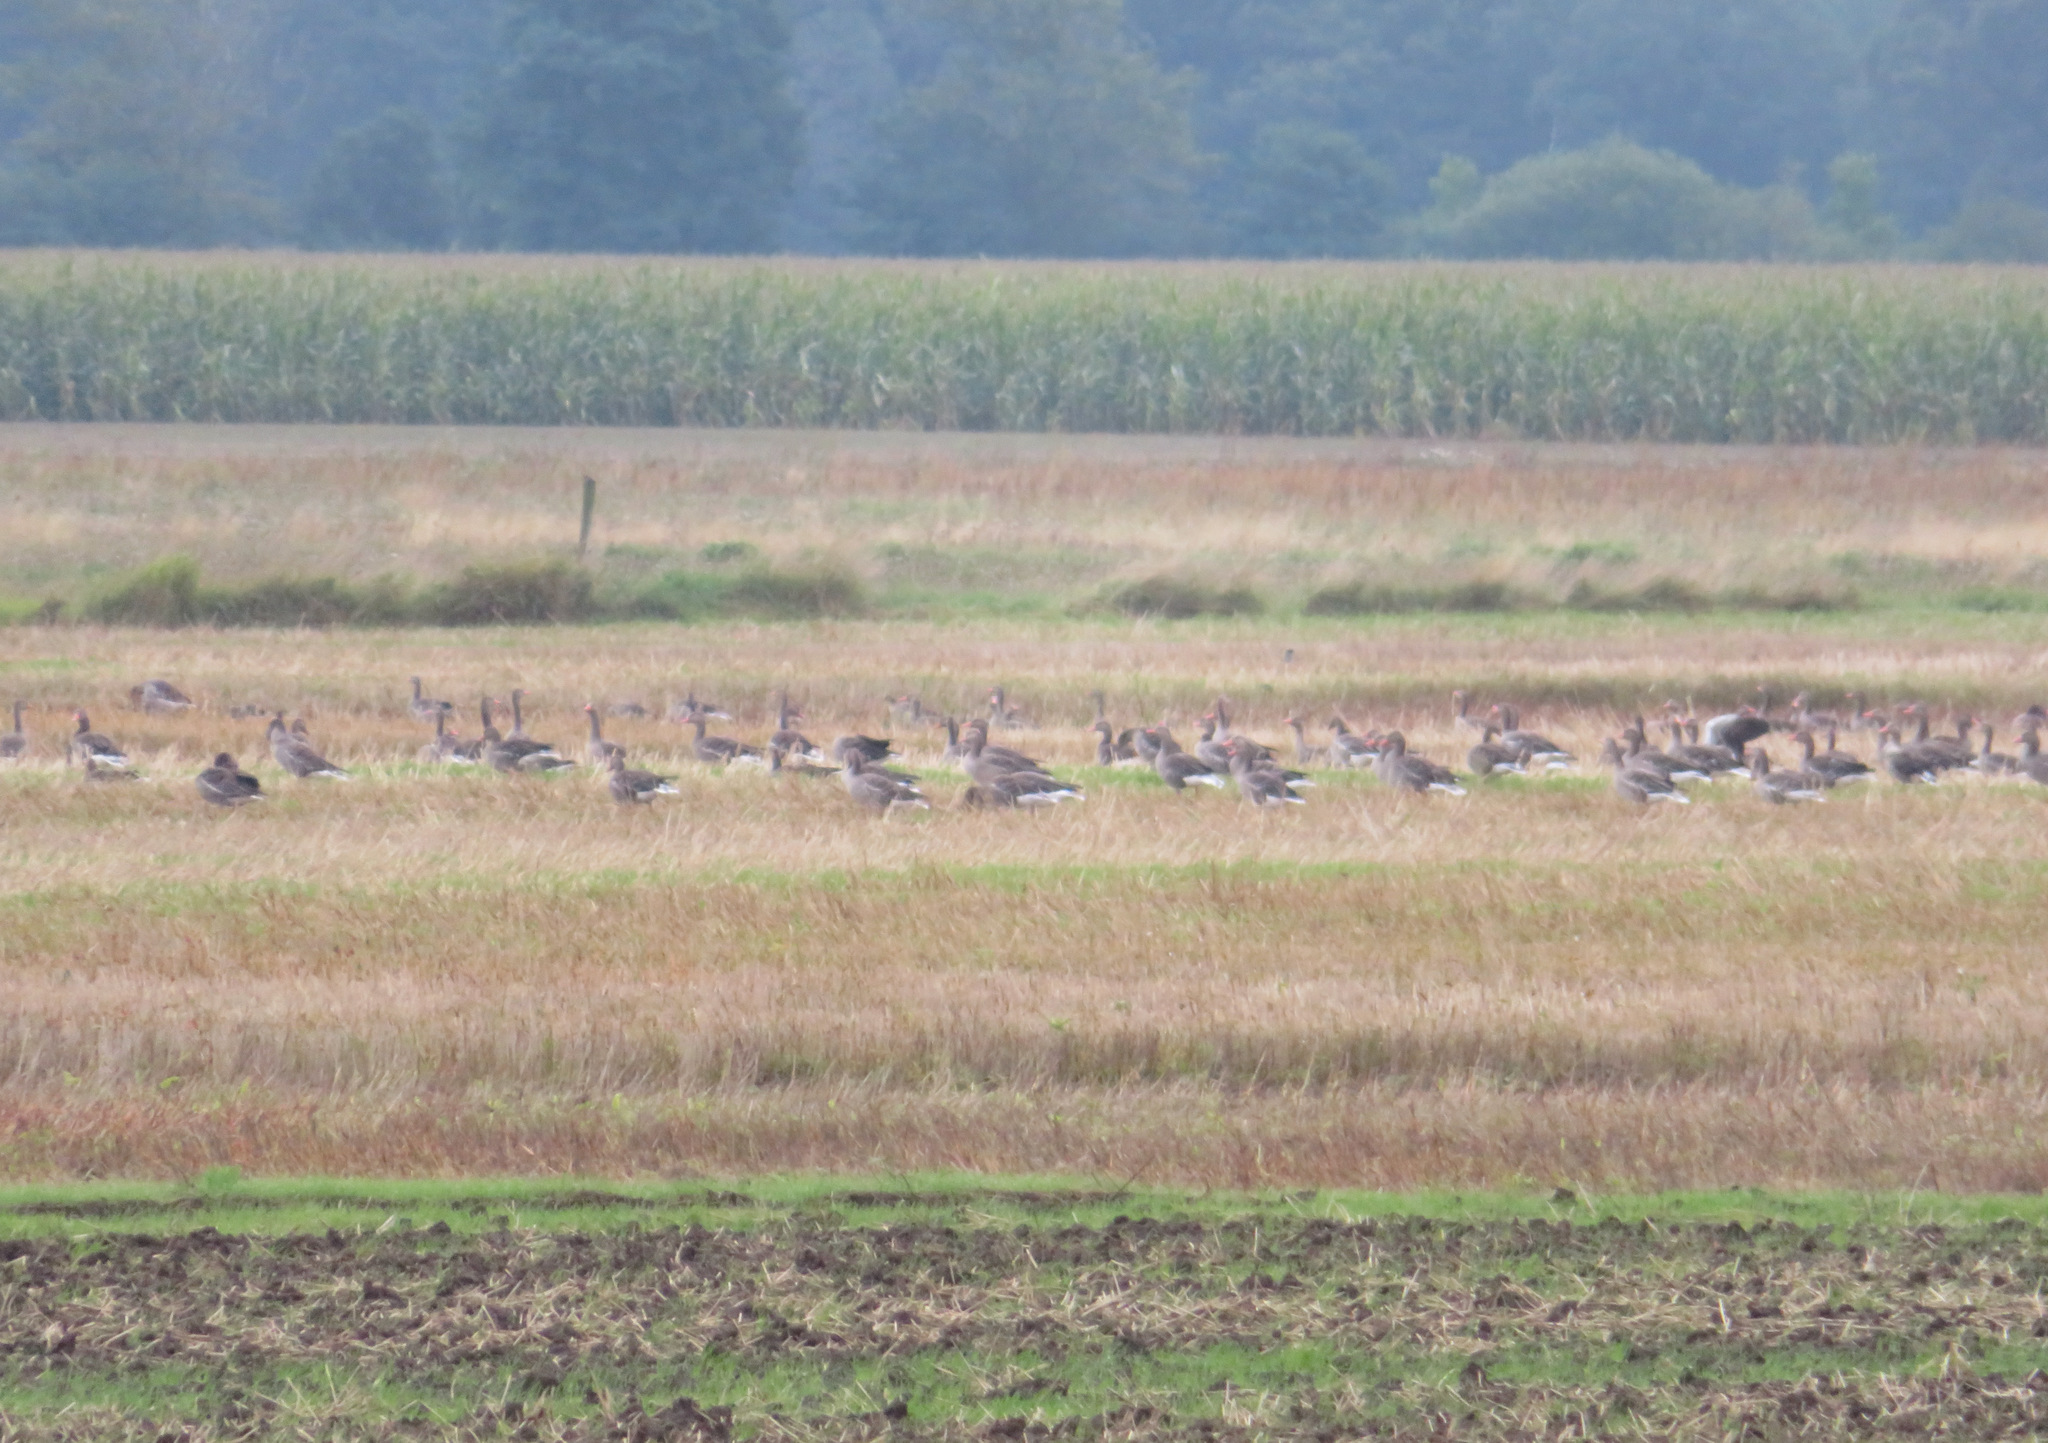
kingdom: Animalia
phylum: Chordata
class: Aves
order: Anseriformes
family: Anatidae
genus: Anser
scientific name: Anser anser
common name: Greylag goose
